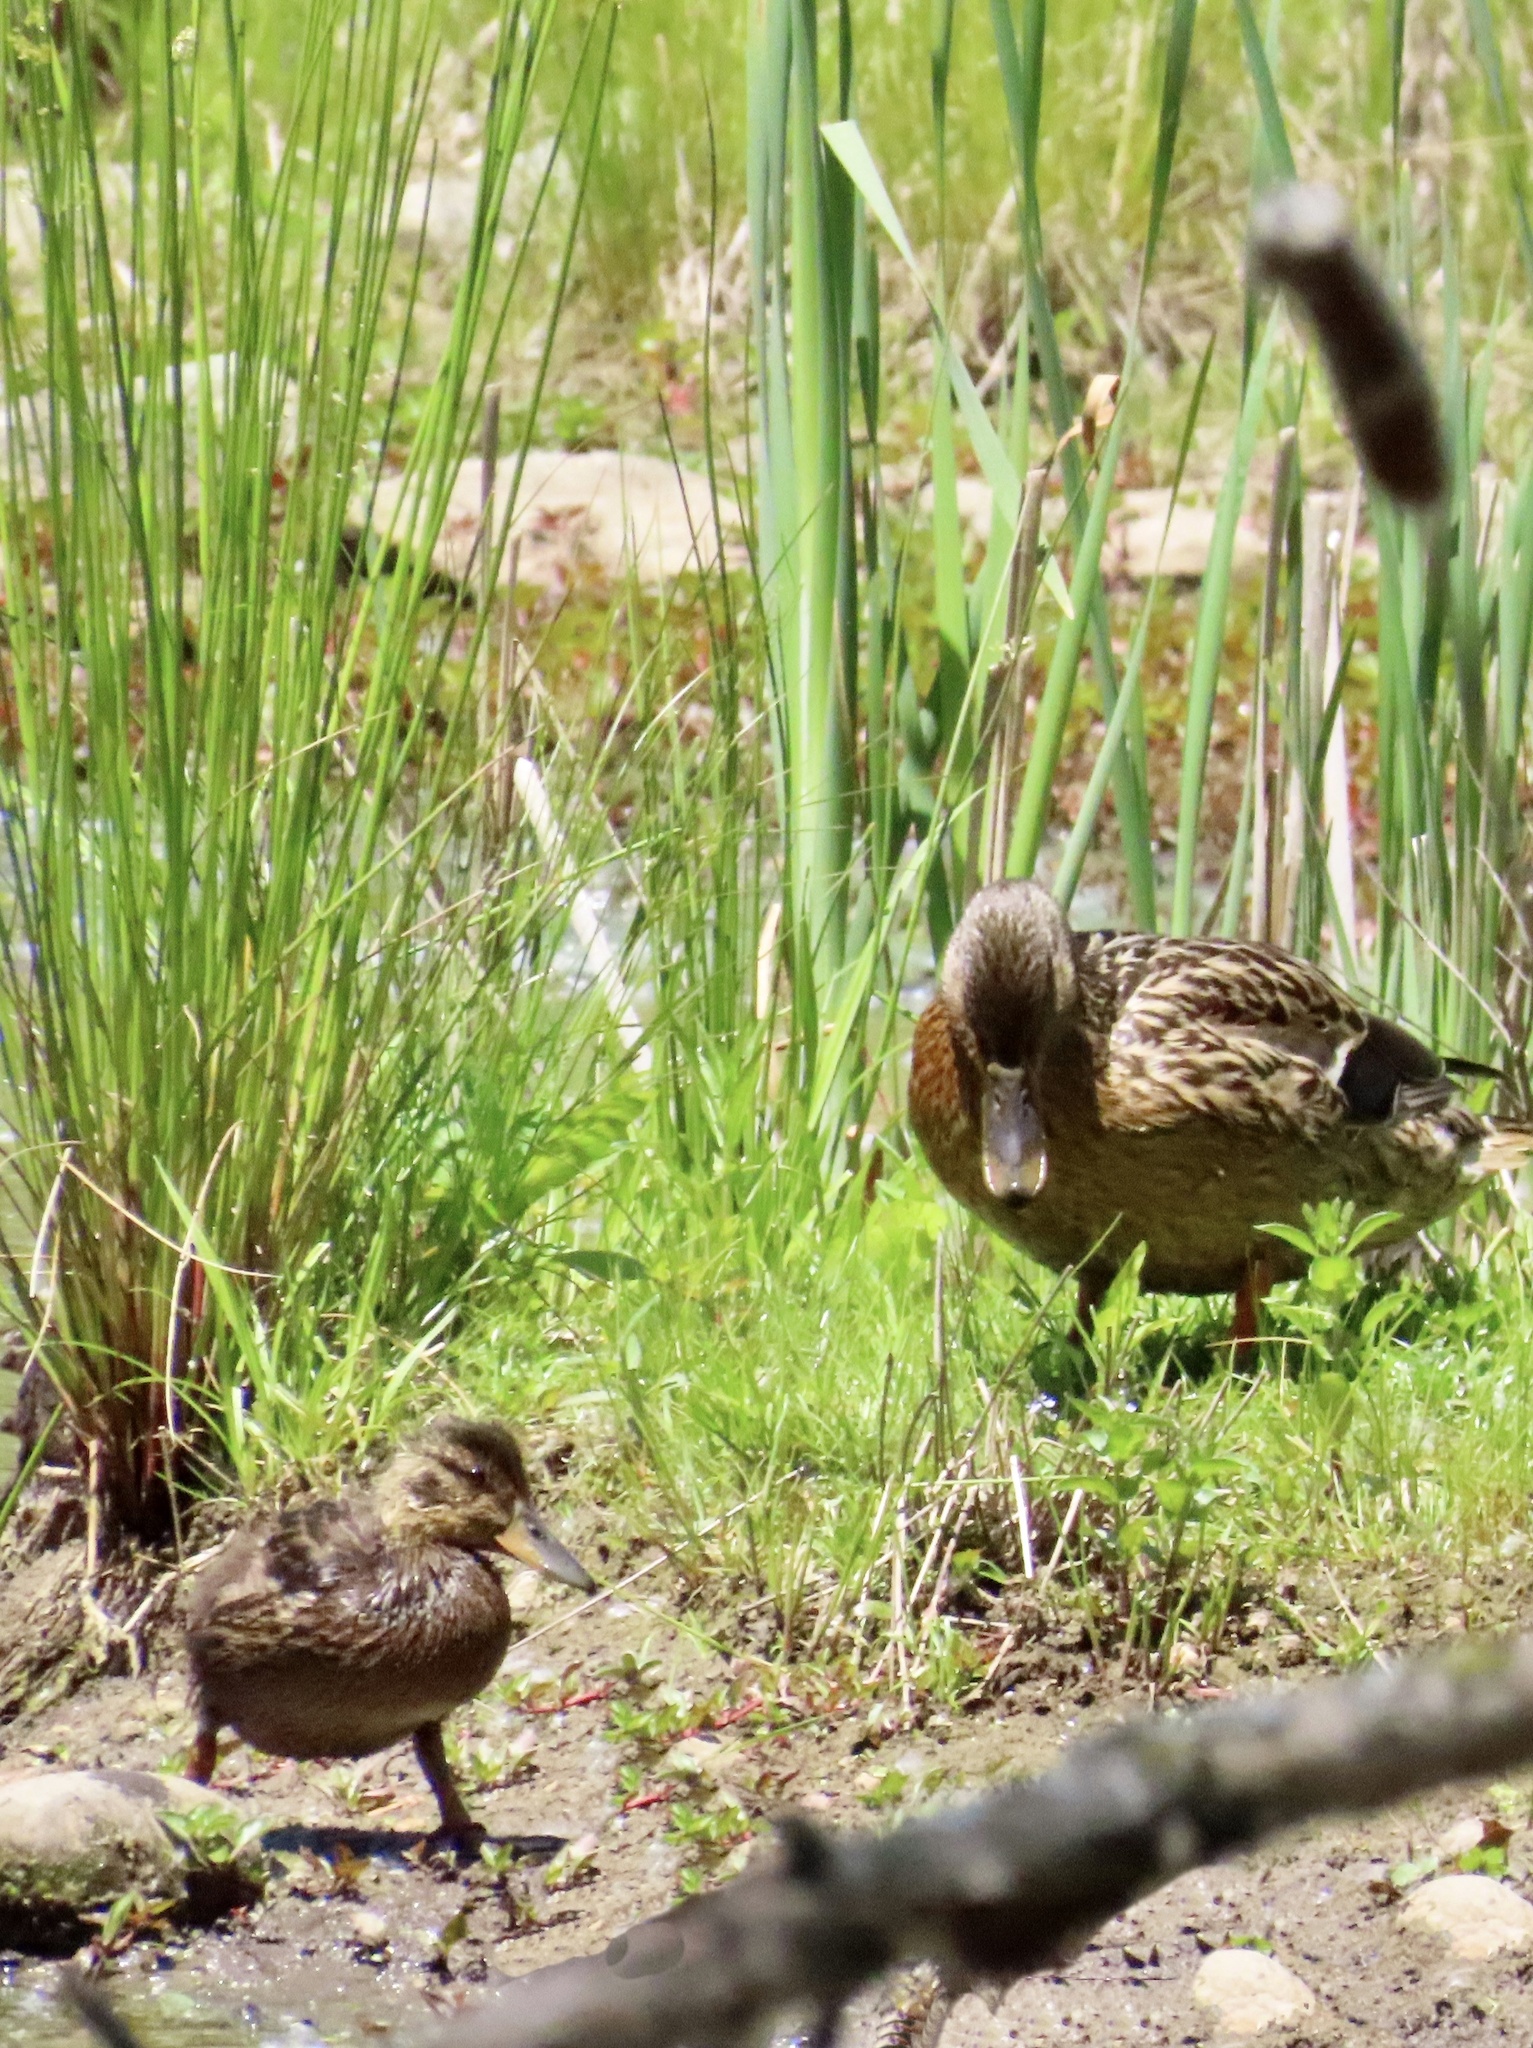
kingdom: Animalia
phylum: Chordata
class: Aves
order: Anseriformes
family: Anatidae
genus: Anas
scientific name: Anas platyrhynchos
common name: Mallard
